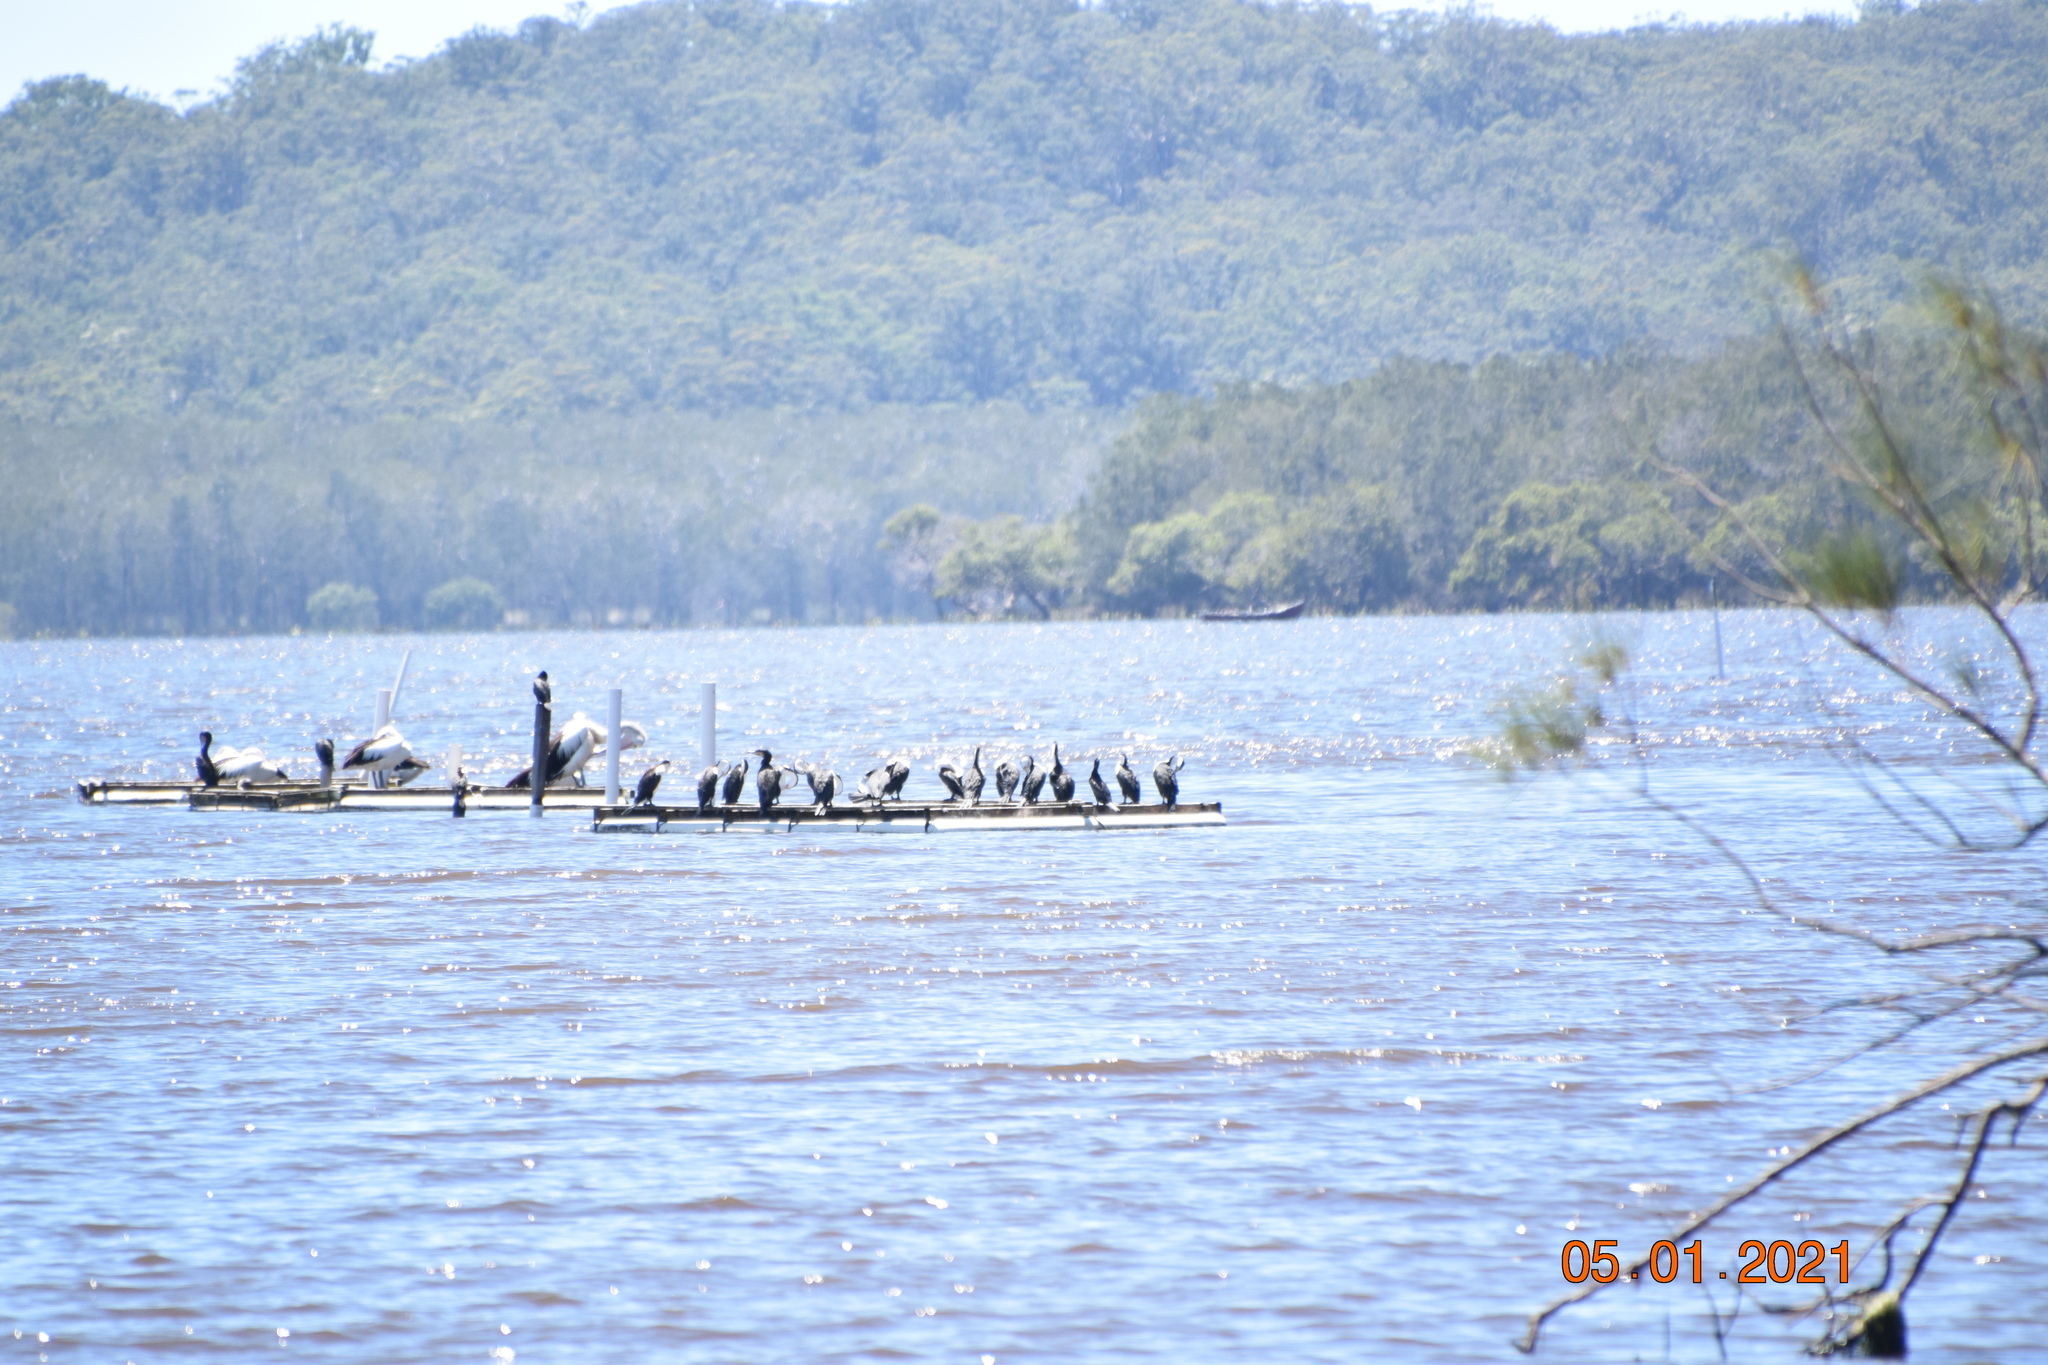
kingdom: Animalia
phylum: Chordata
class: Aves
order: Suliformes
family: Phalacrocoracidae
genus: Phalacrocorax
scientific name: Phalacrocorax carbo
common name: Great cormorant
